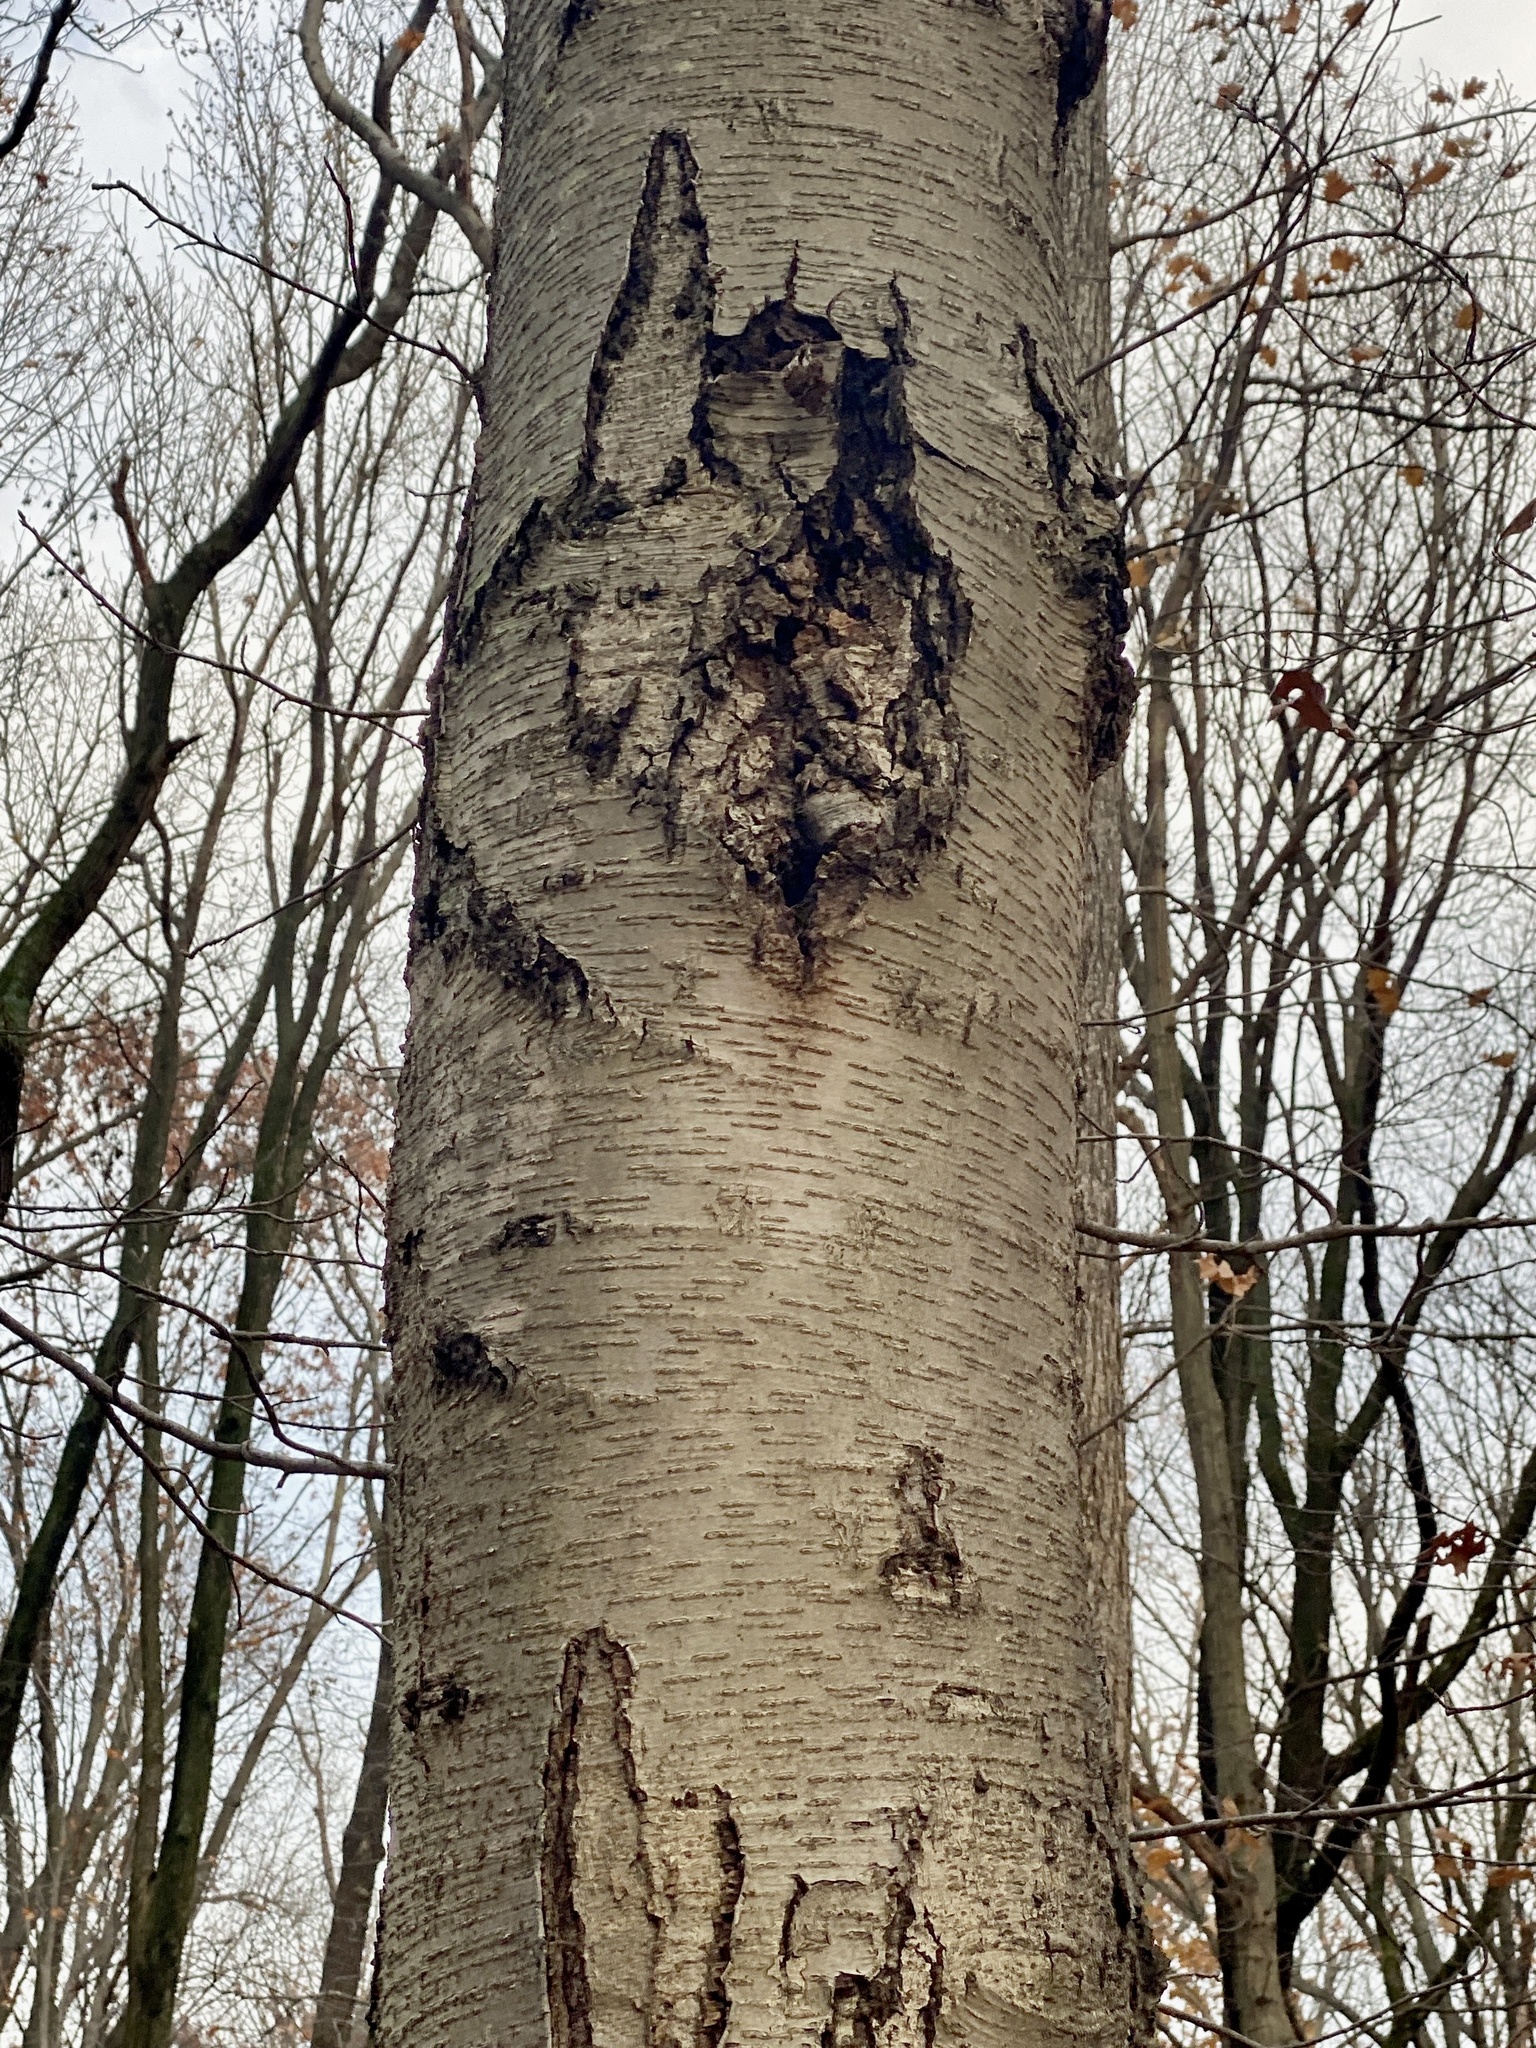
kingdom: Plantae
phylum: Tracheophyta
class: Magnoliopsida
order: Fagales
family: Betulaceae
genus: Betula
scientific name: Betula lenta
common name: Black birch
